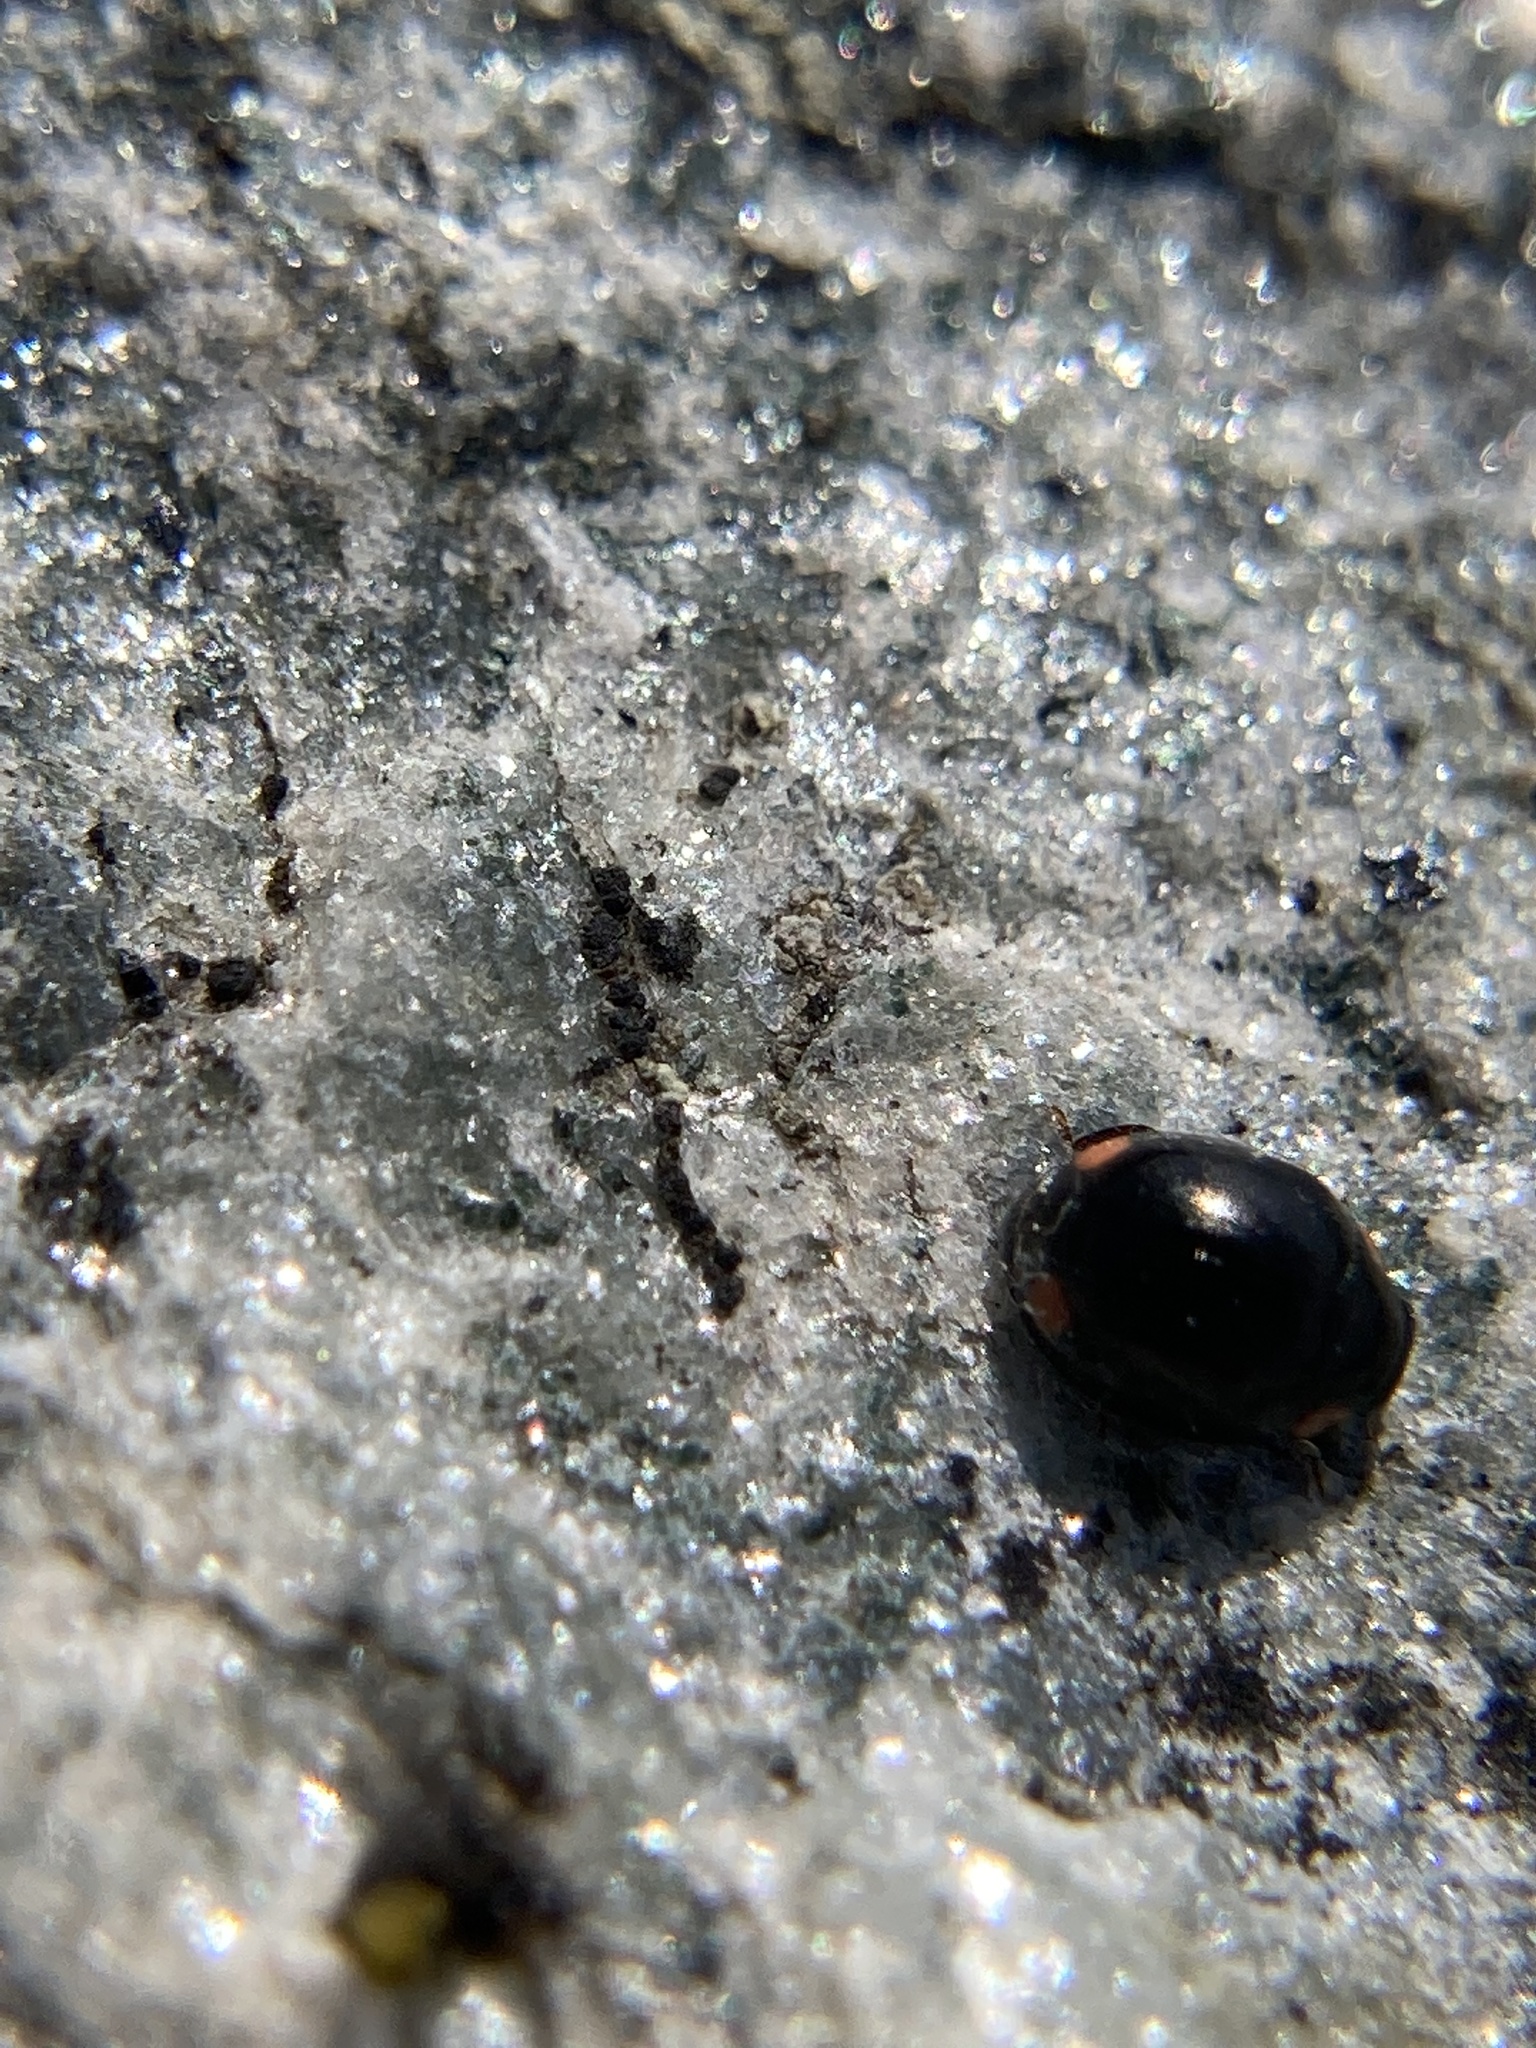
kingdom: Animalia
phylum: Arthropoda
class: Insecta
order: Coleoptera
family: Coccinellidae
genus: Hyperaspis
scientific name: Hyperaspis bigeminata
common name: Bigeminate sigil lady beetle
